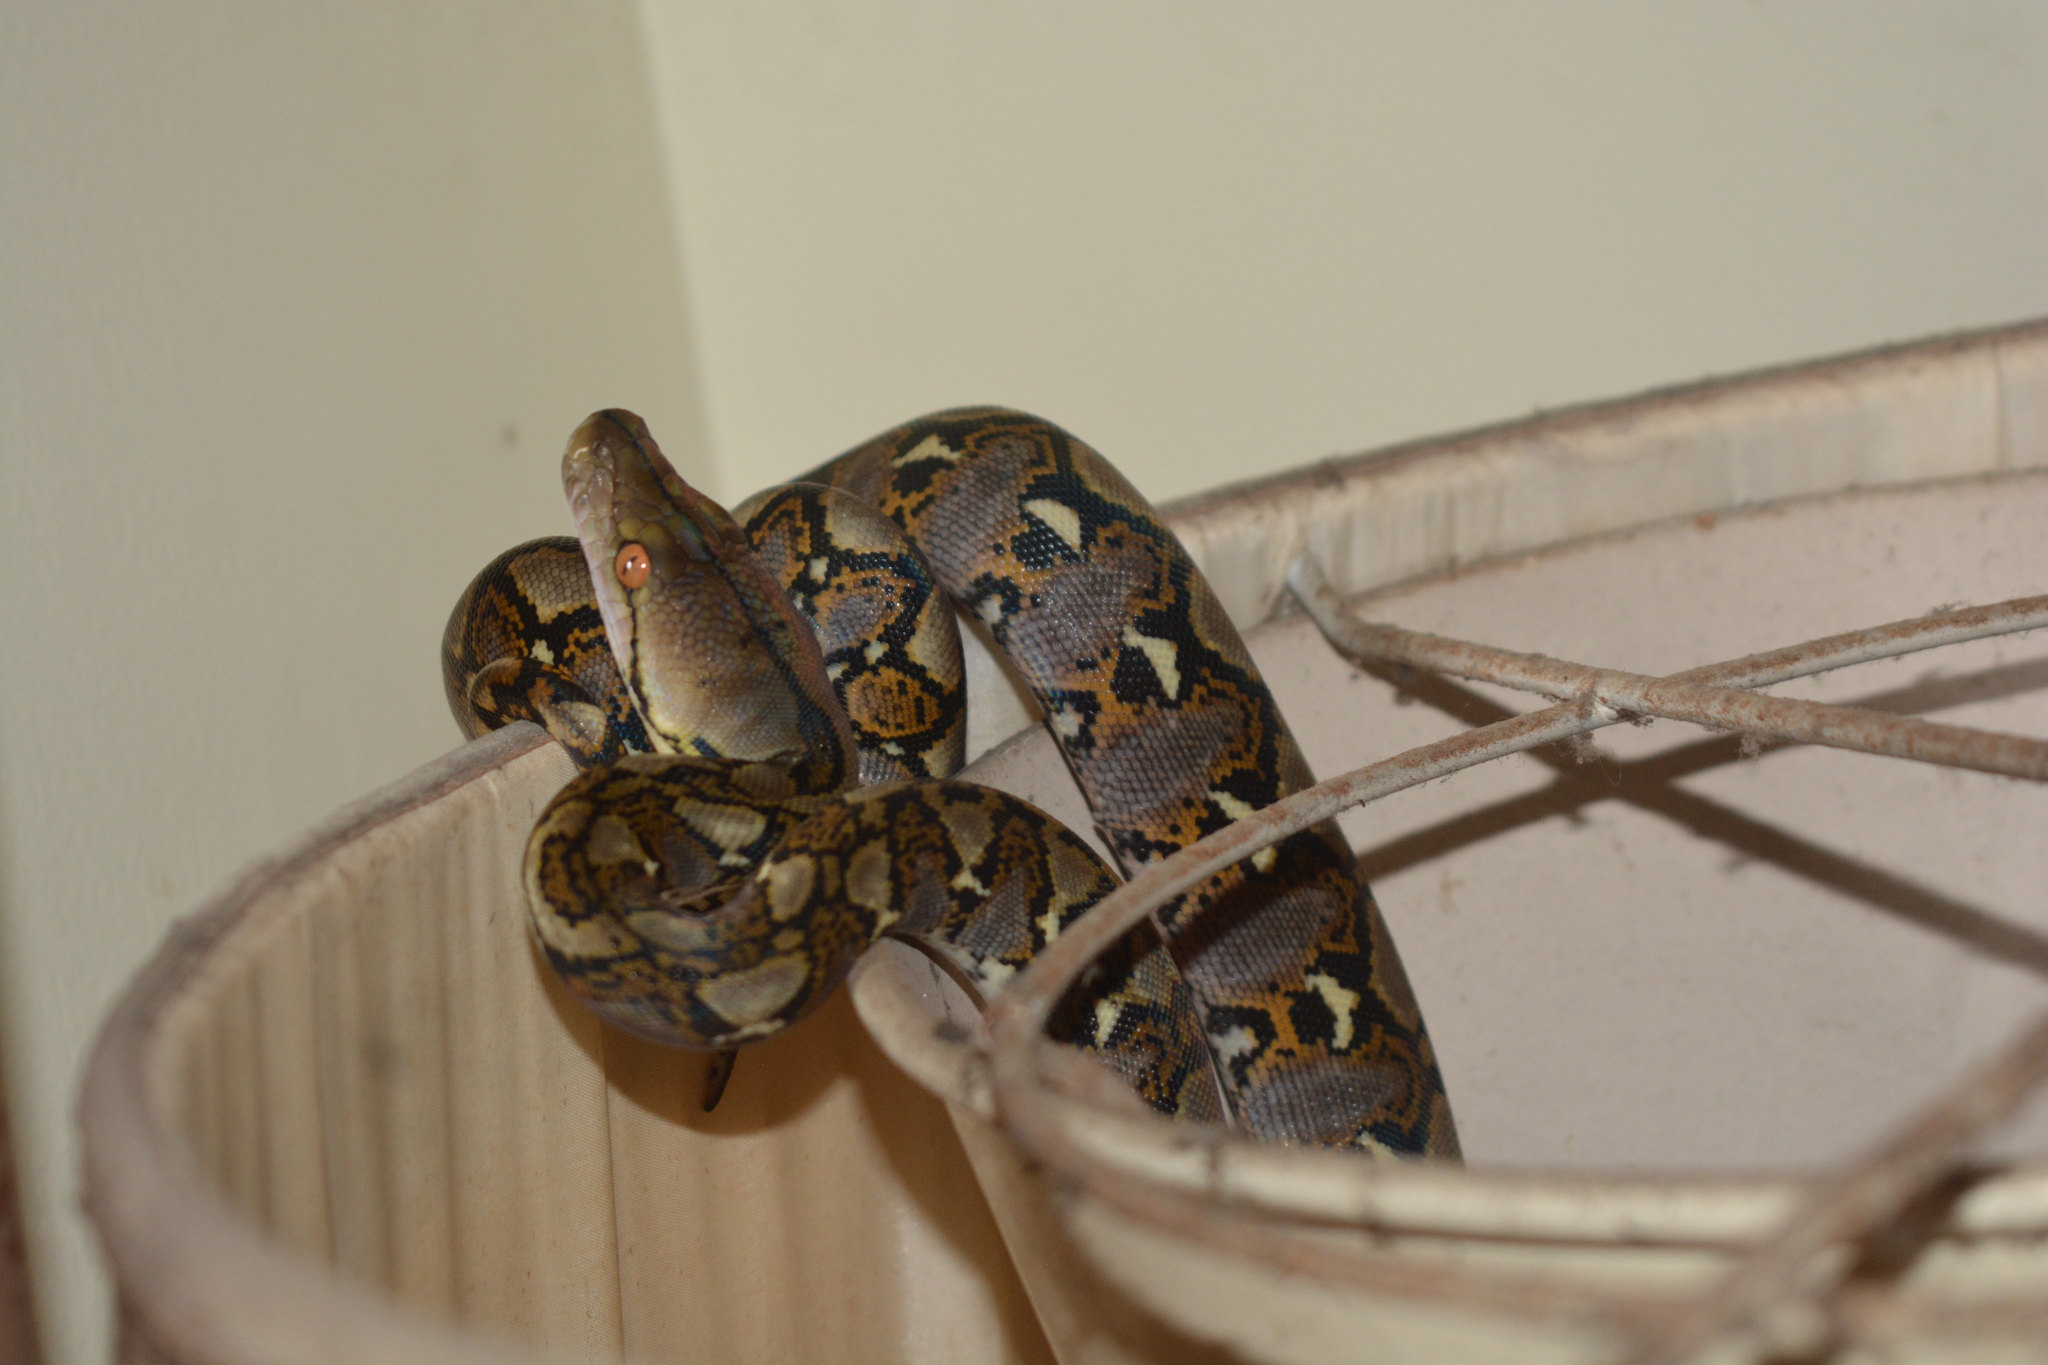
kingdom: Animalia
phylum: Chordata
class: Squamata
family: Pythonidae
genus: Malayopython
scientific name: Malayopython reticulatus
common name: Reticulated python
